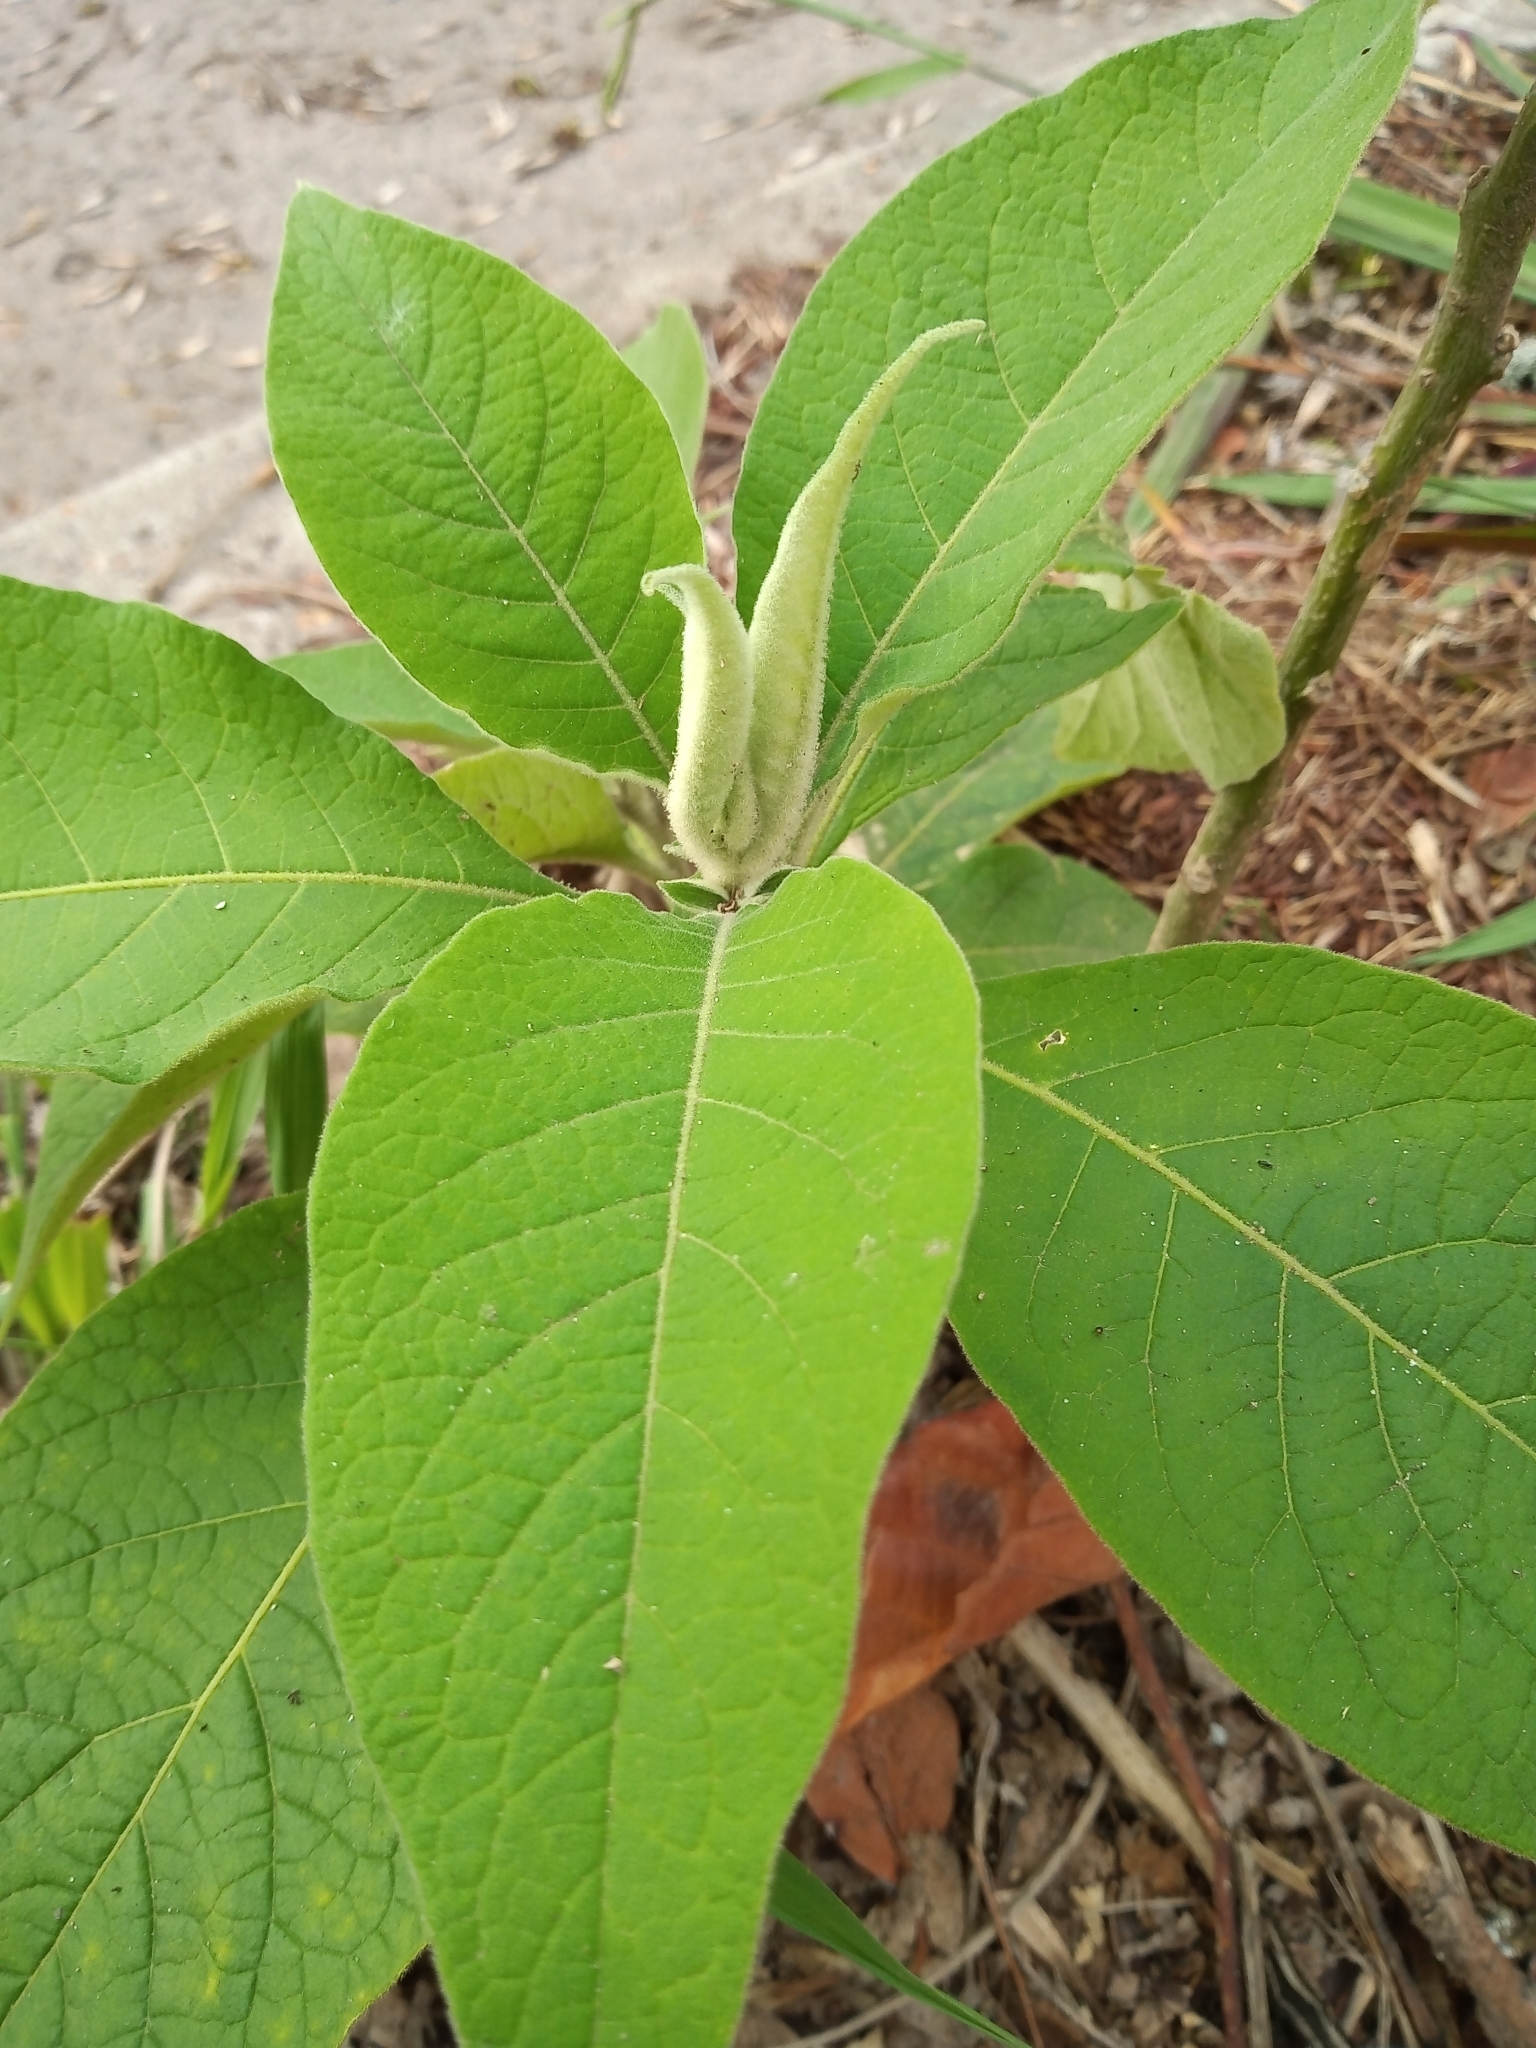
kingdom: Plantae
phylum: Tracheophyta
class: Magnoliopsida
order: Solanales
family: Solanaceae
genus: Solanum
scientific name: Solanum granulosoleprosum
